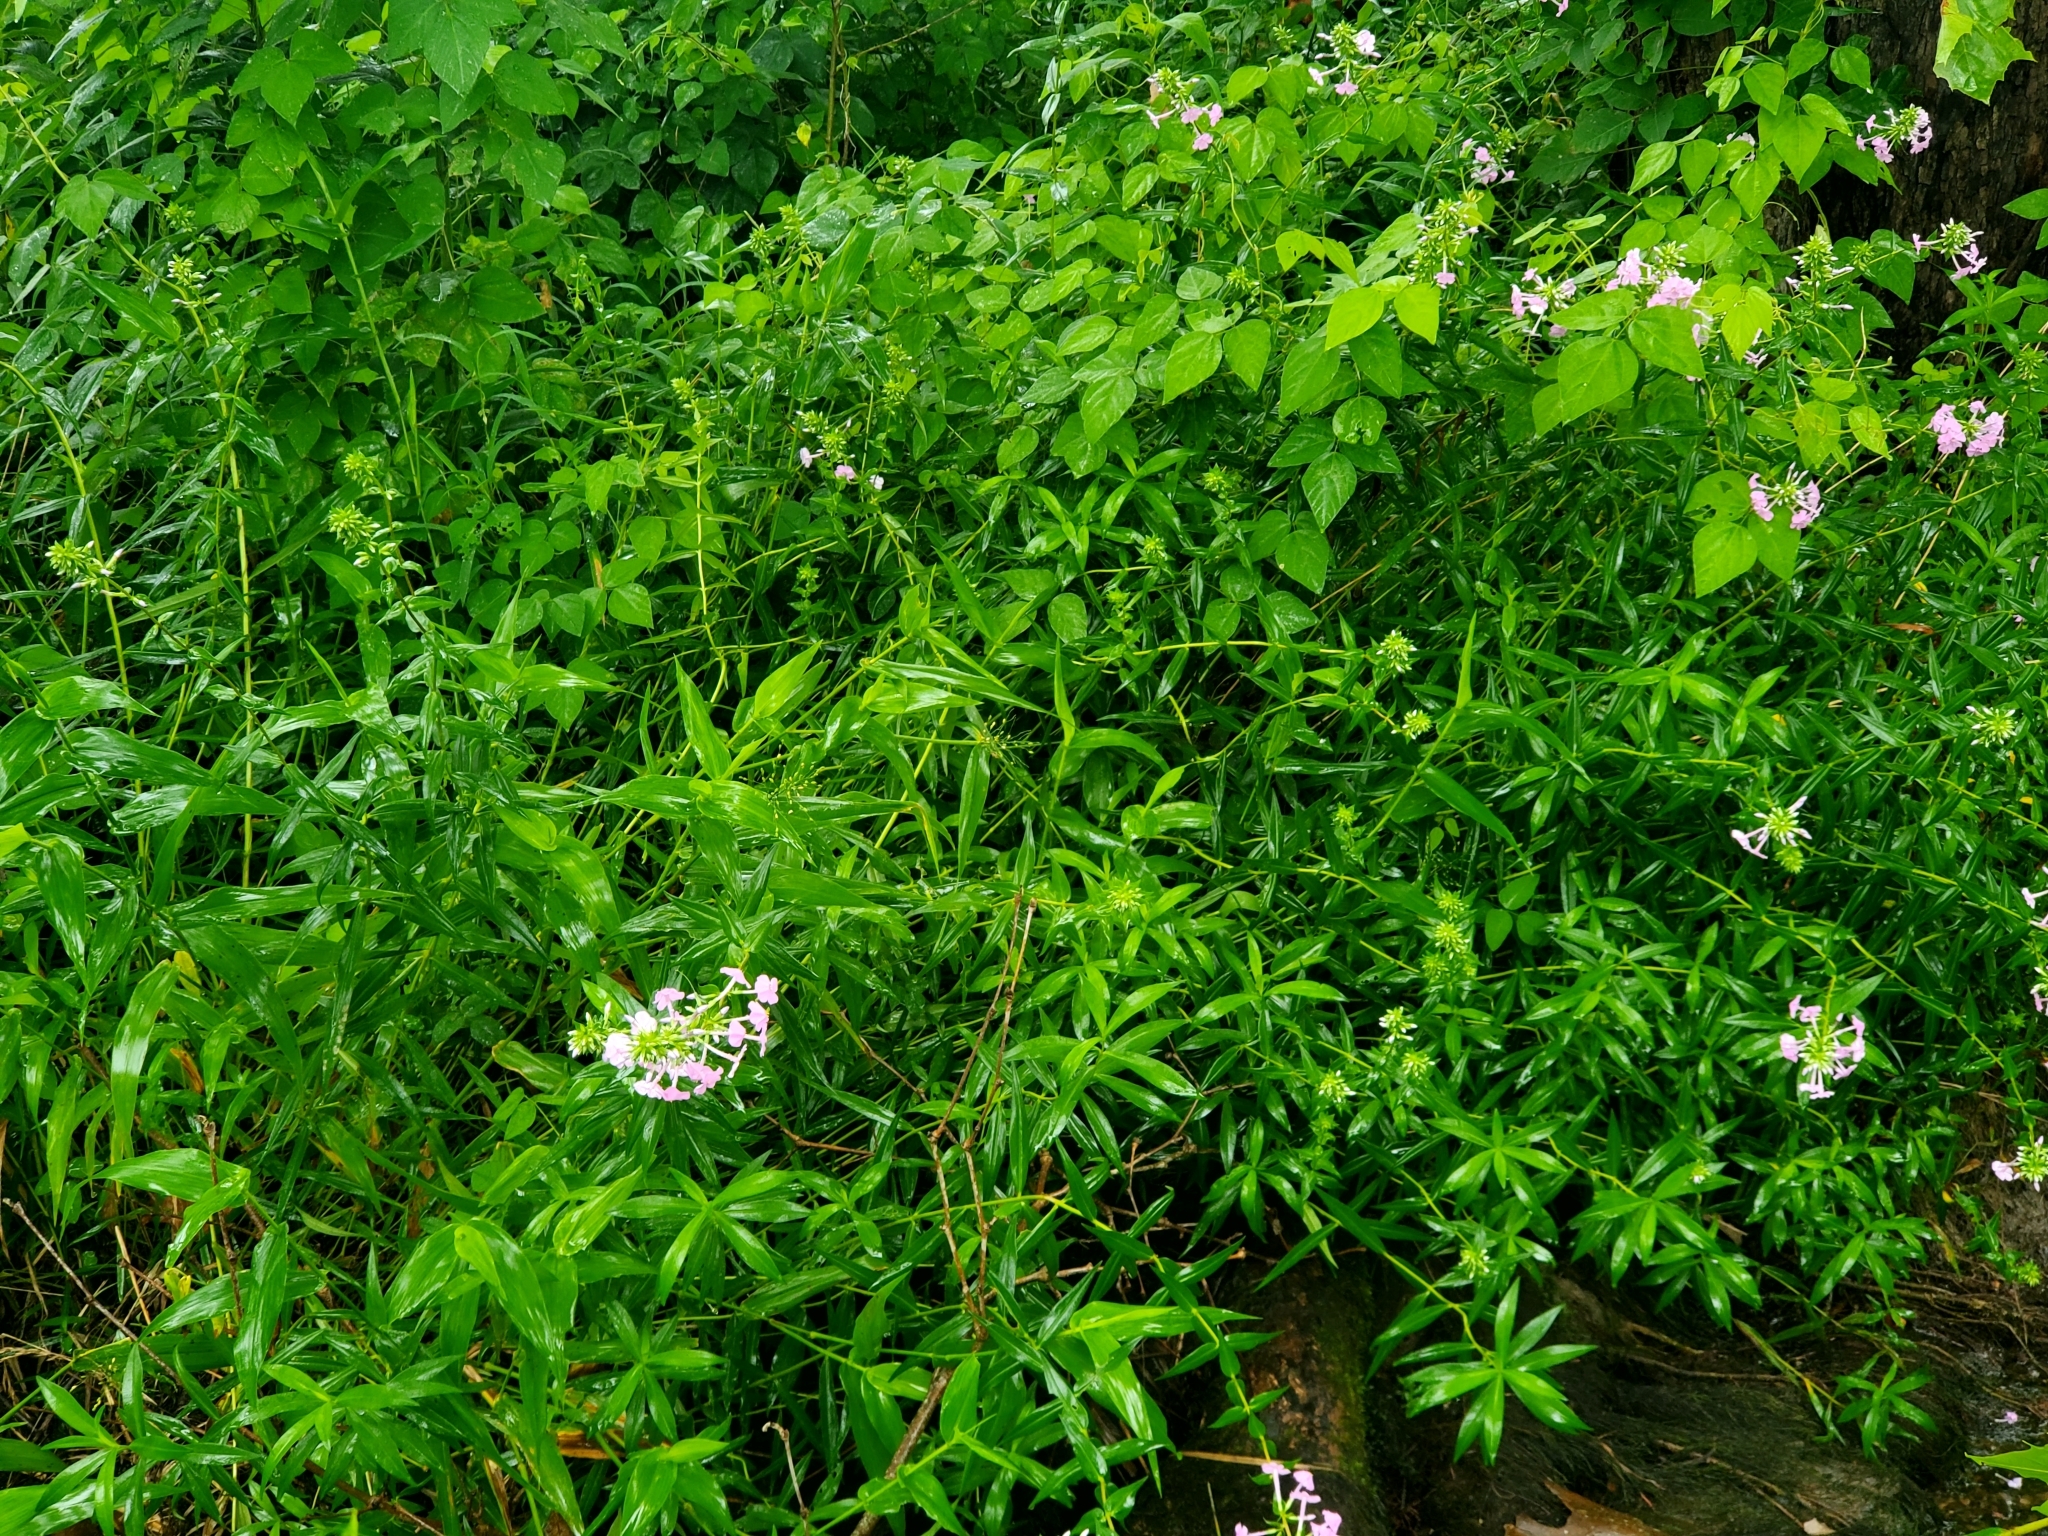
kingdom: Plantae
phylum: Tracheophyta
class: Magnoliopsida
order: Ericales
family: Polemoniaceae
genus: Phlox
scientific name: Phlox maculata
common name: Meadow phlox
